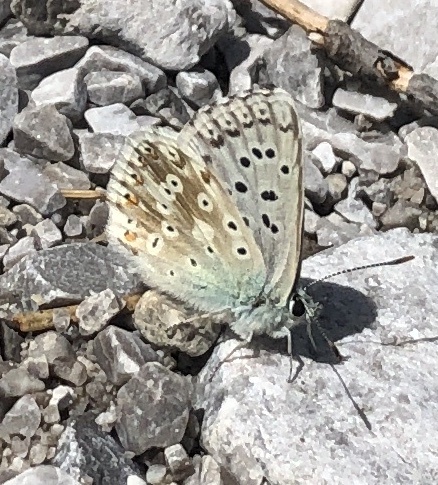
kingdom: Animalia
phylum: Arthropoda
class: Insecta
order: Lepidoptera
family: Lycaenidae
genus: Lysandra
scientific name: Lysandra coridon
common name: Chalkhill blue
